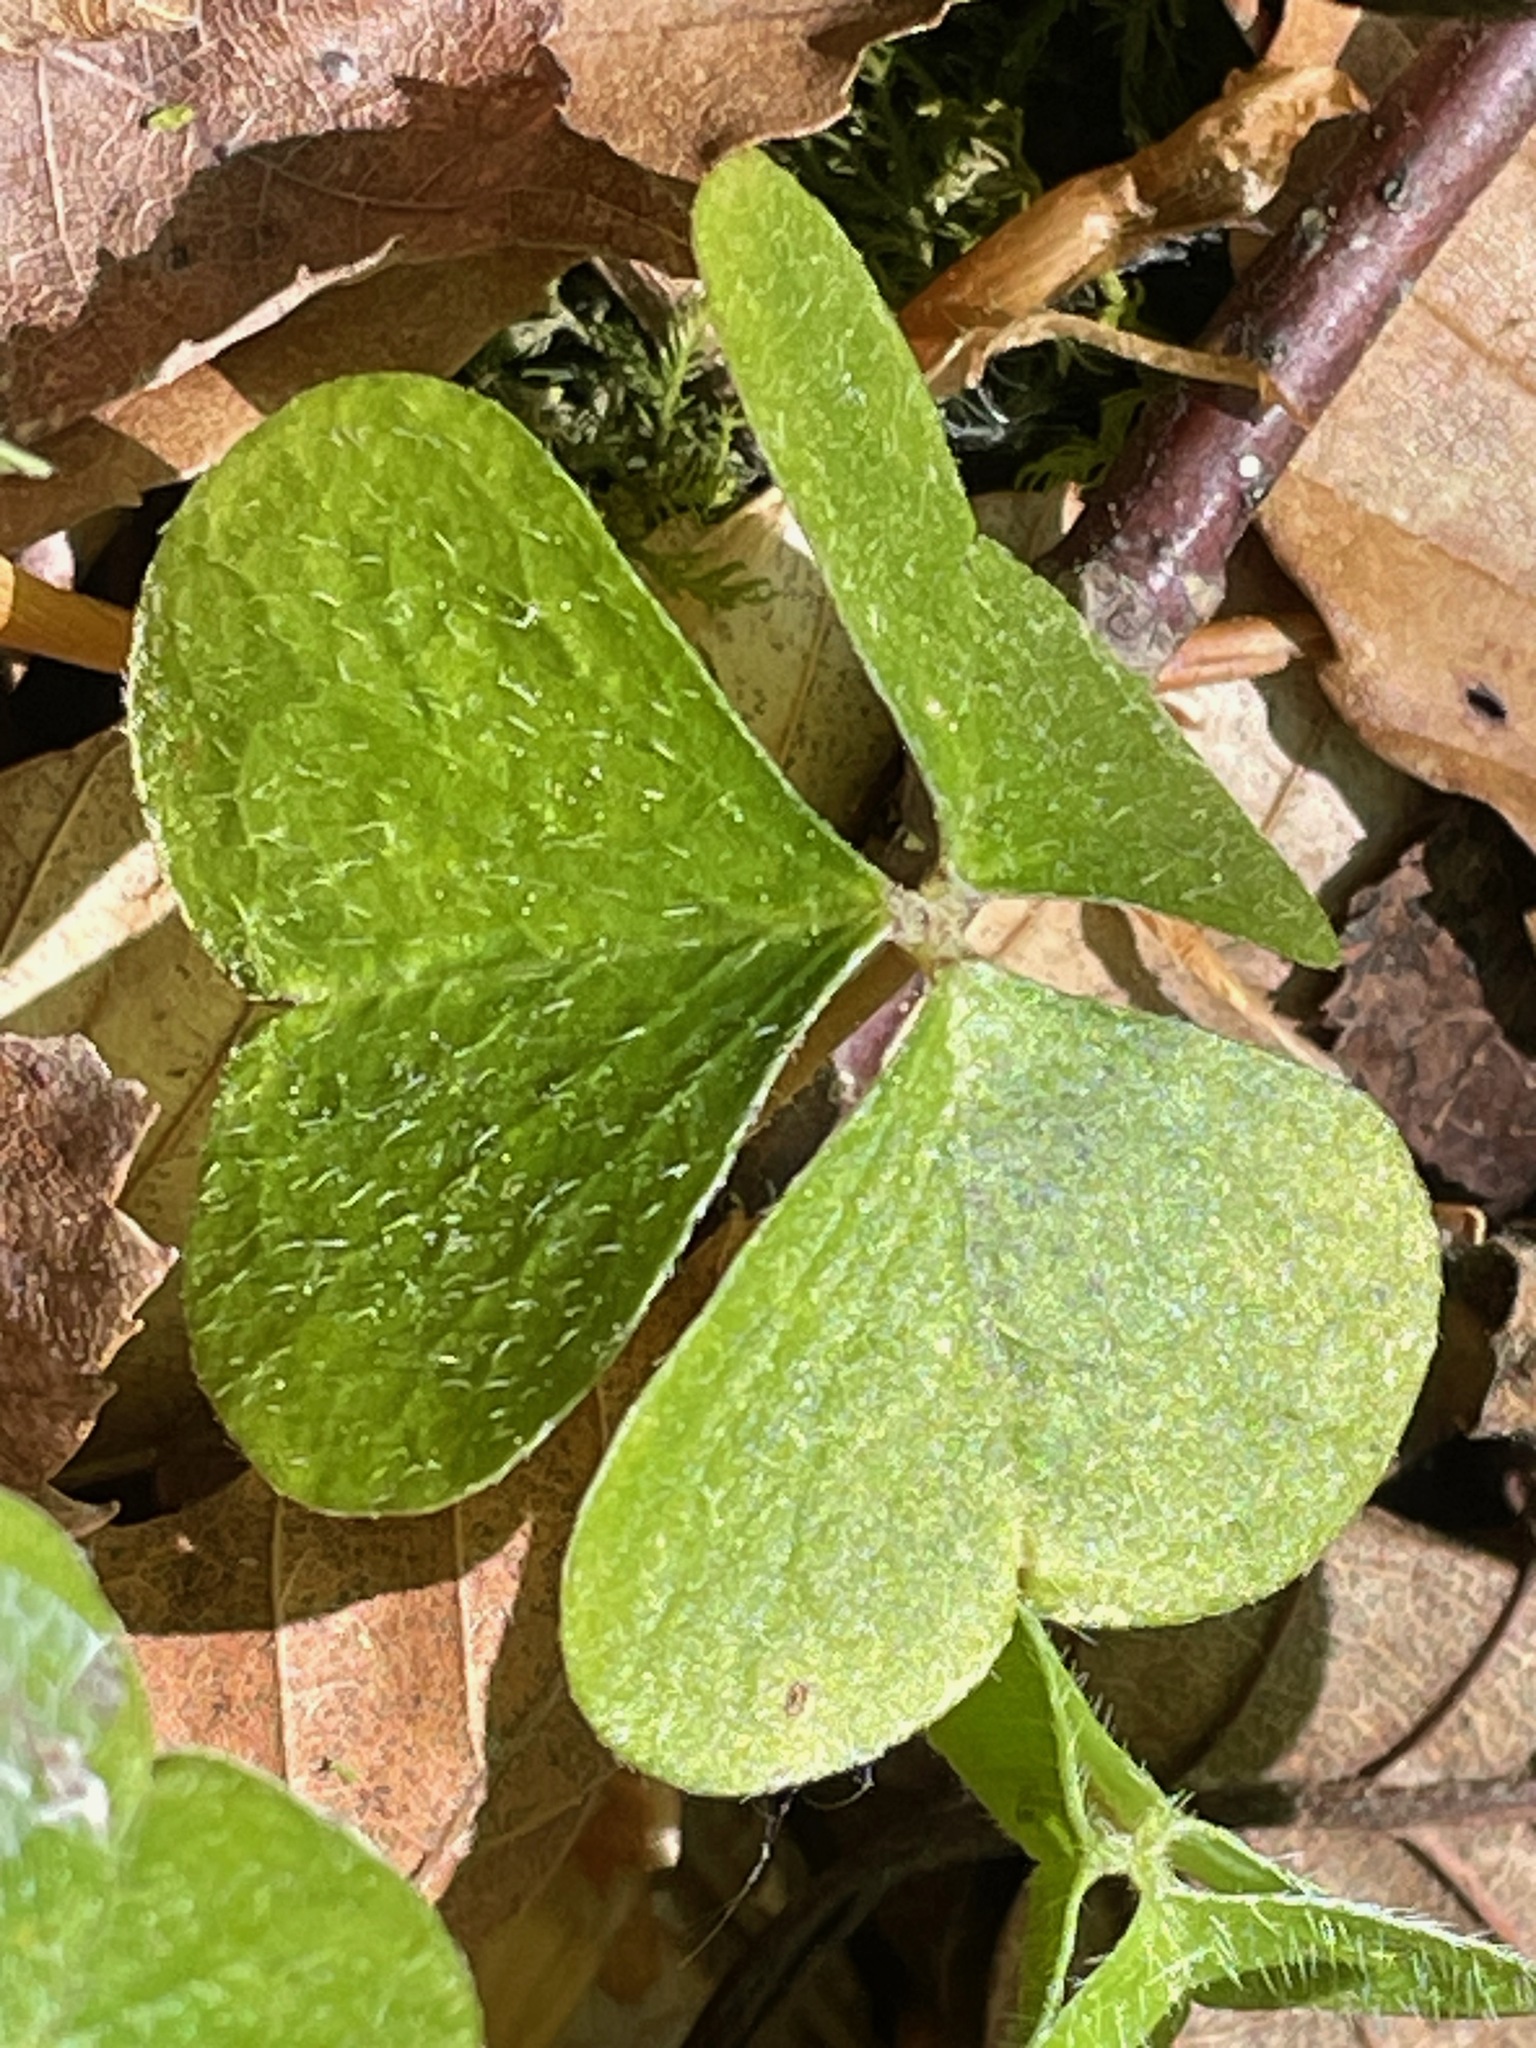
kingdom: Plantae
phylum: Tracheophyta
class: Magnoliopsida
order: Oxalidales
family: Oxalidaceae
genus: Oxalis
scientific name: Oxalis montana
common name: American wood-sorrel
